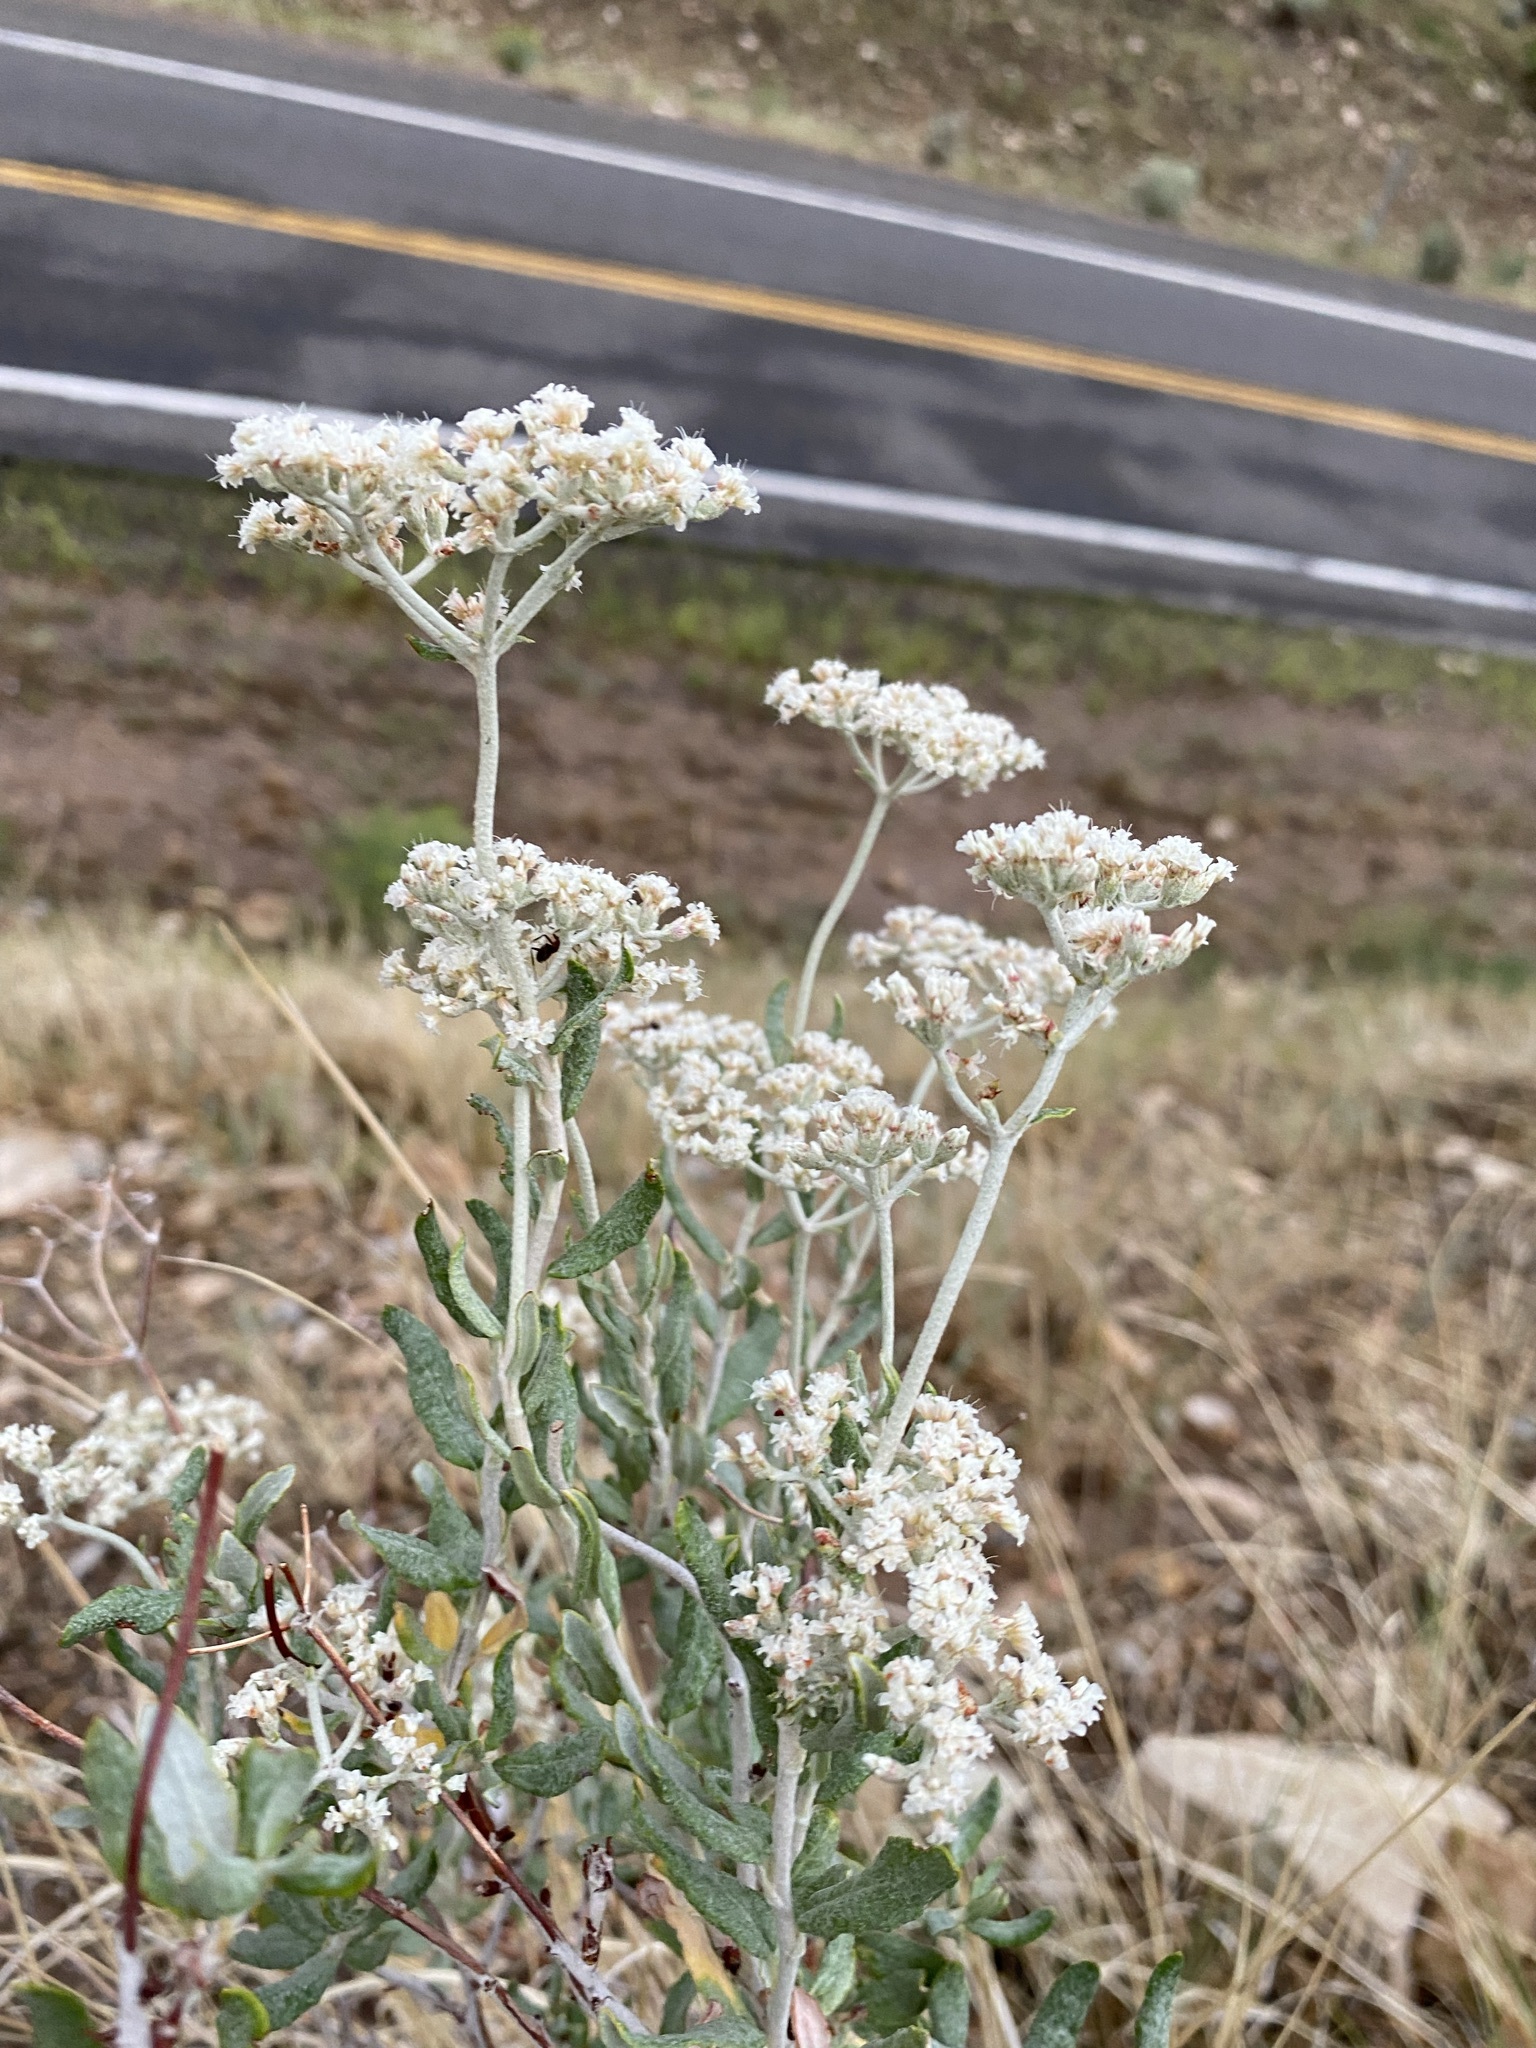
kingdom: Plantae
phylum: Tracheophyta
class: Magnoliopsida
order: Caryophyllales
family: Polygonaceae
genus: Eriogonum
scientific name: Eriogonum corymbosum
